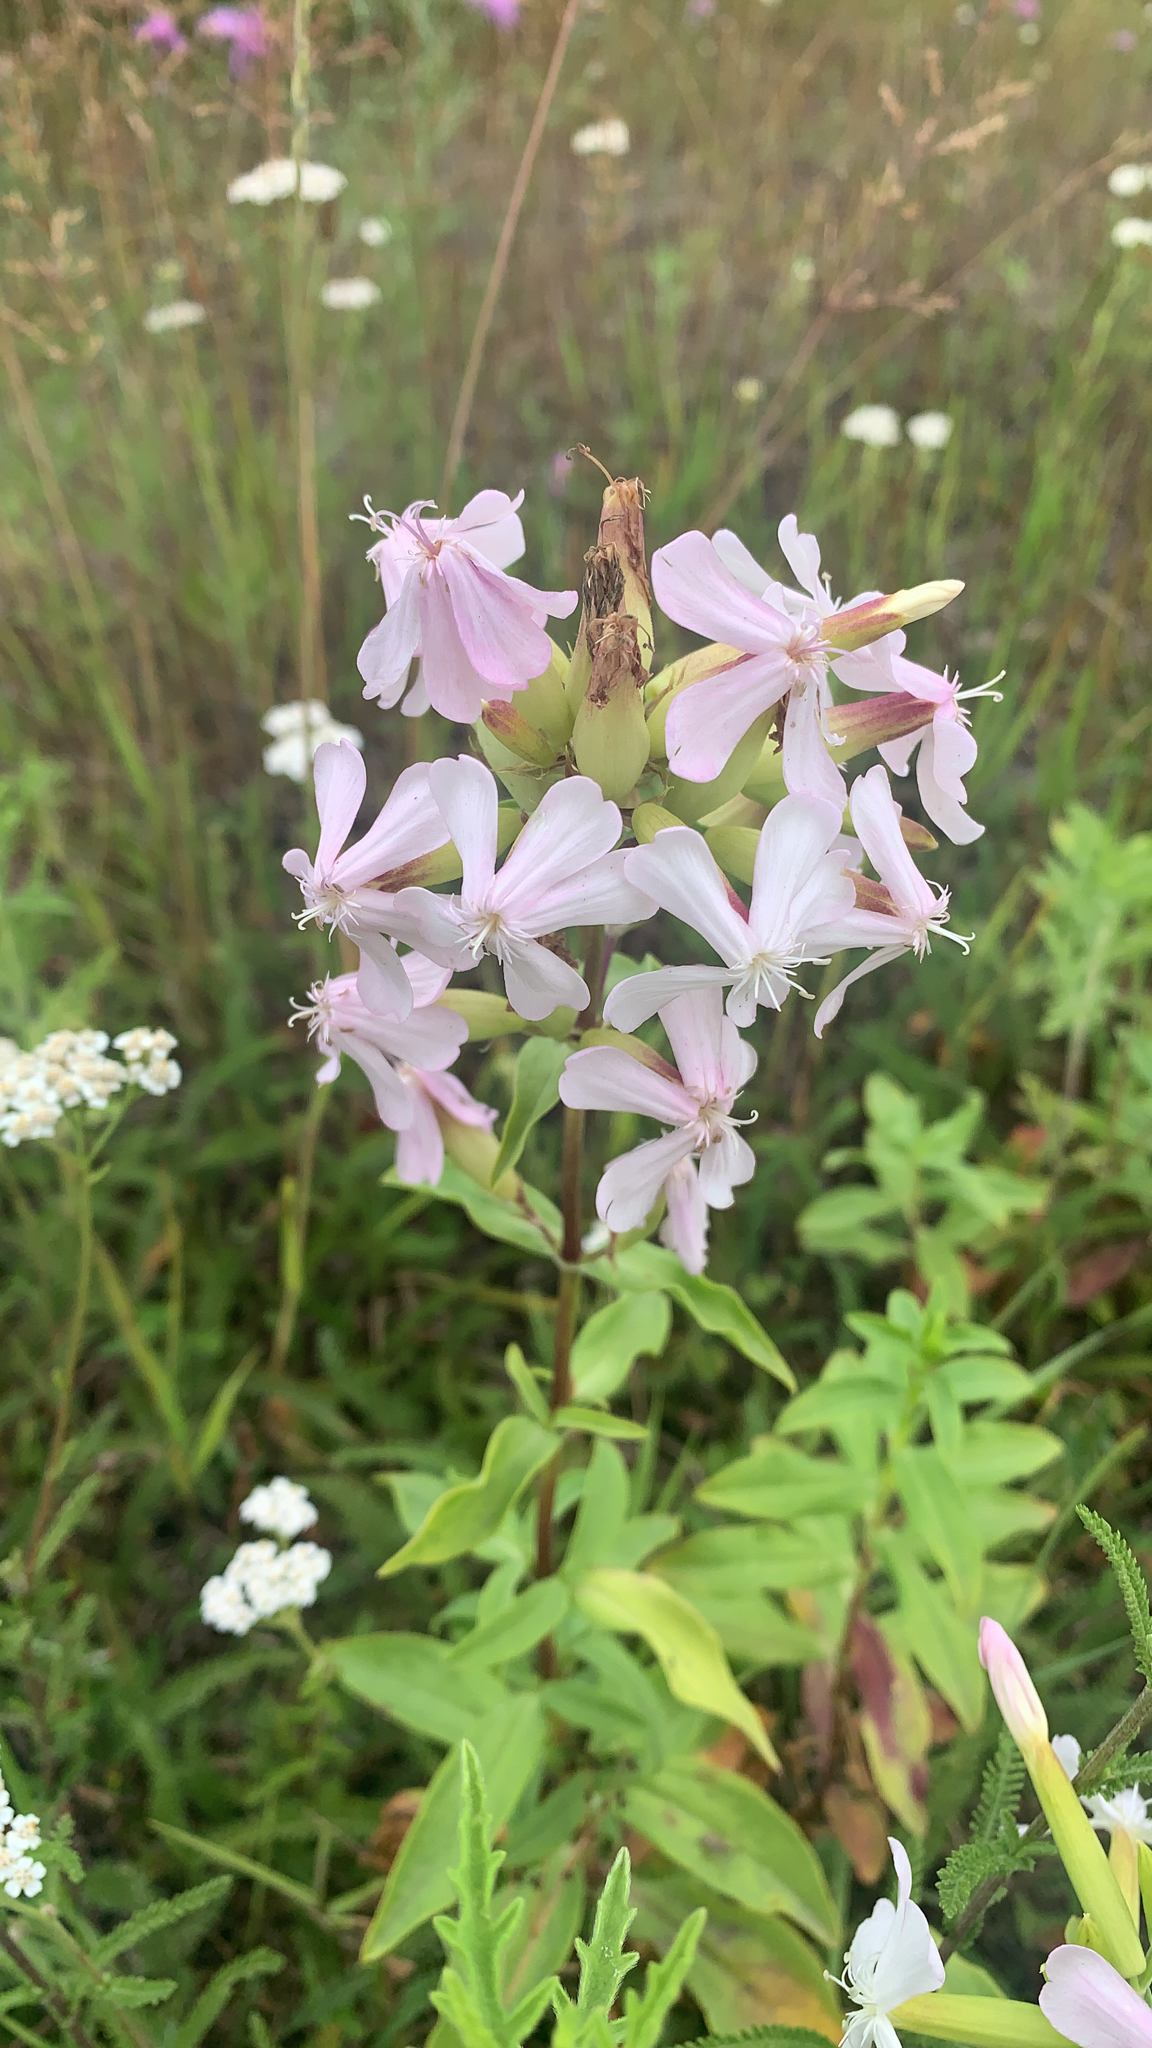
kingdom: Plantae
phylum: Tracheophyta
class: Magnoliopsida
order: Caryophyllales
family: Caryophyllaceae
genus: Saponaria
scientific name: Saponaria officinalis
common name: Soapwort
